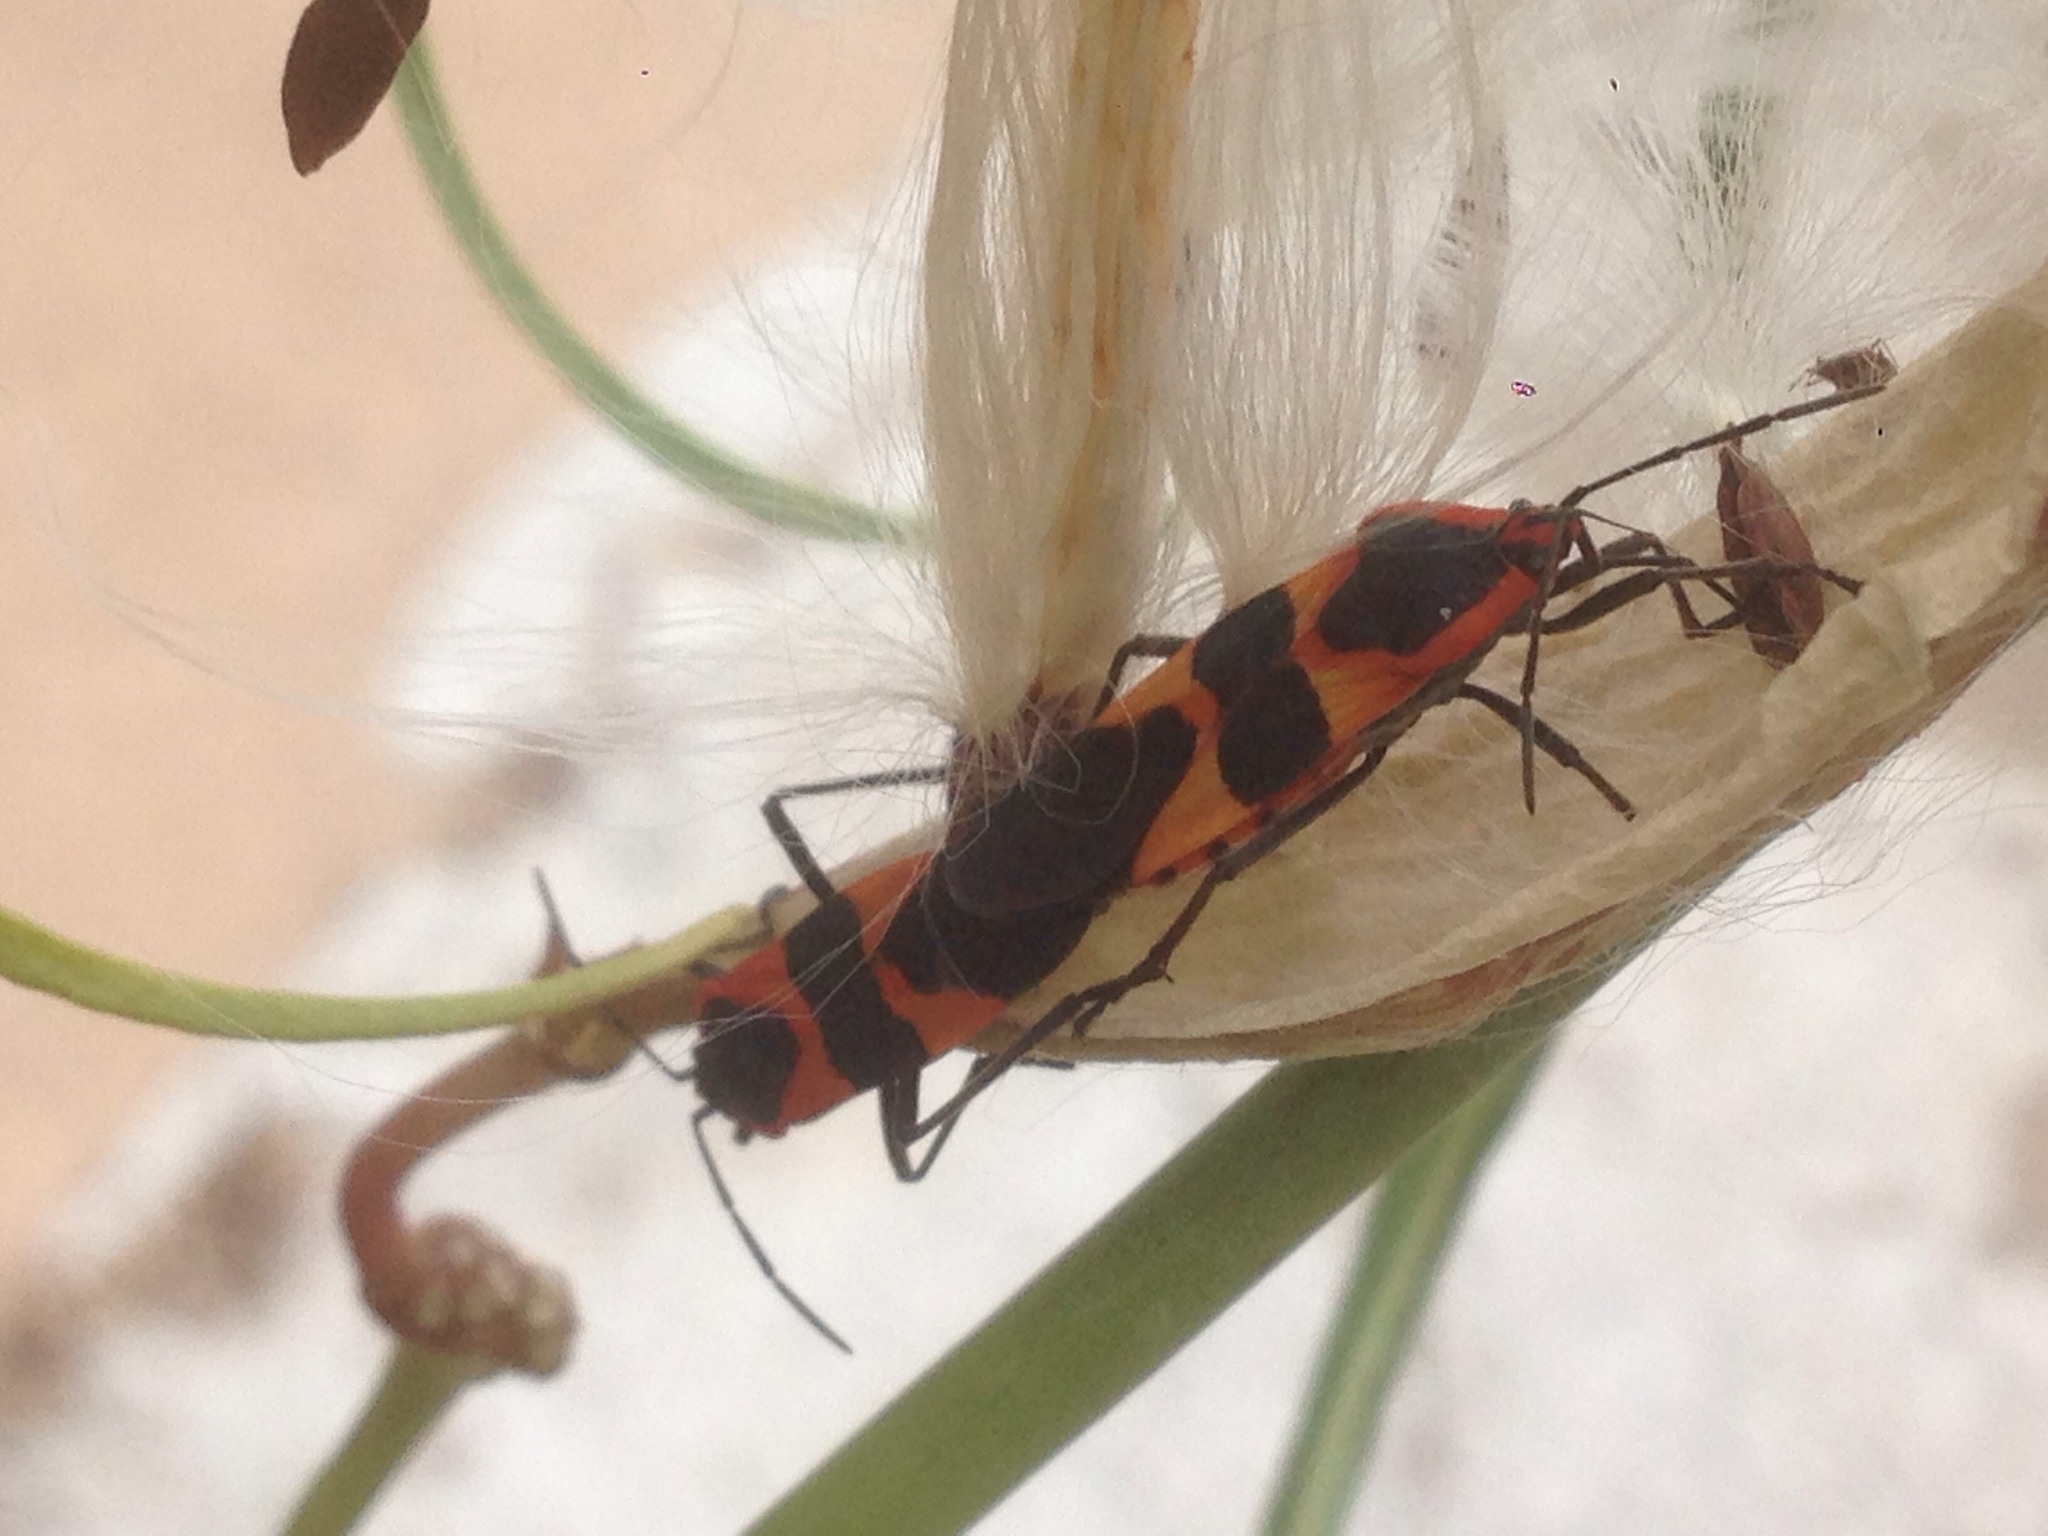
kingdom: Animalia
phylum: Arthropoda
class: Insecta
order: Hemiptera
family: Lygaeidae
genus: Oncopeltus
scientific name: Oncopeltus fasciatus
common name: Large milkweed bug
